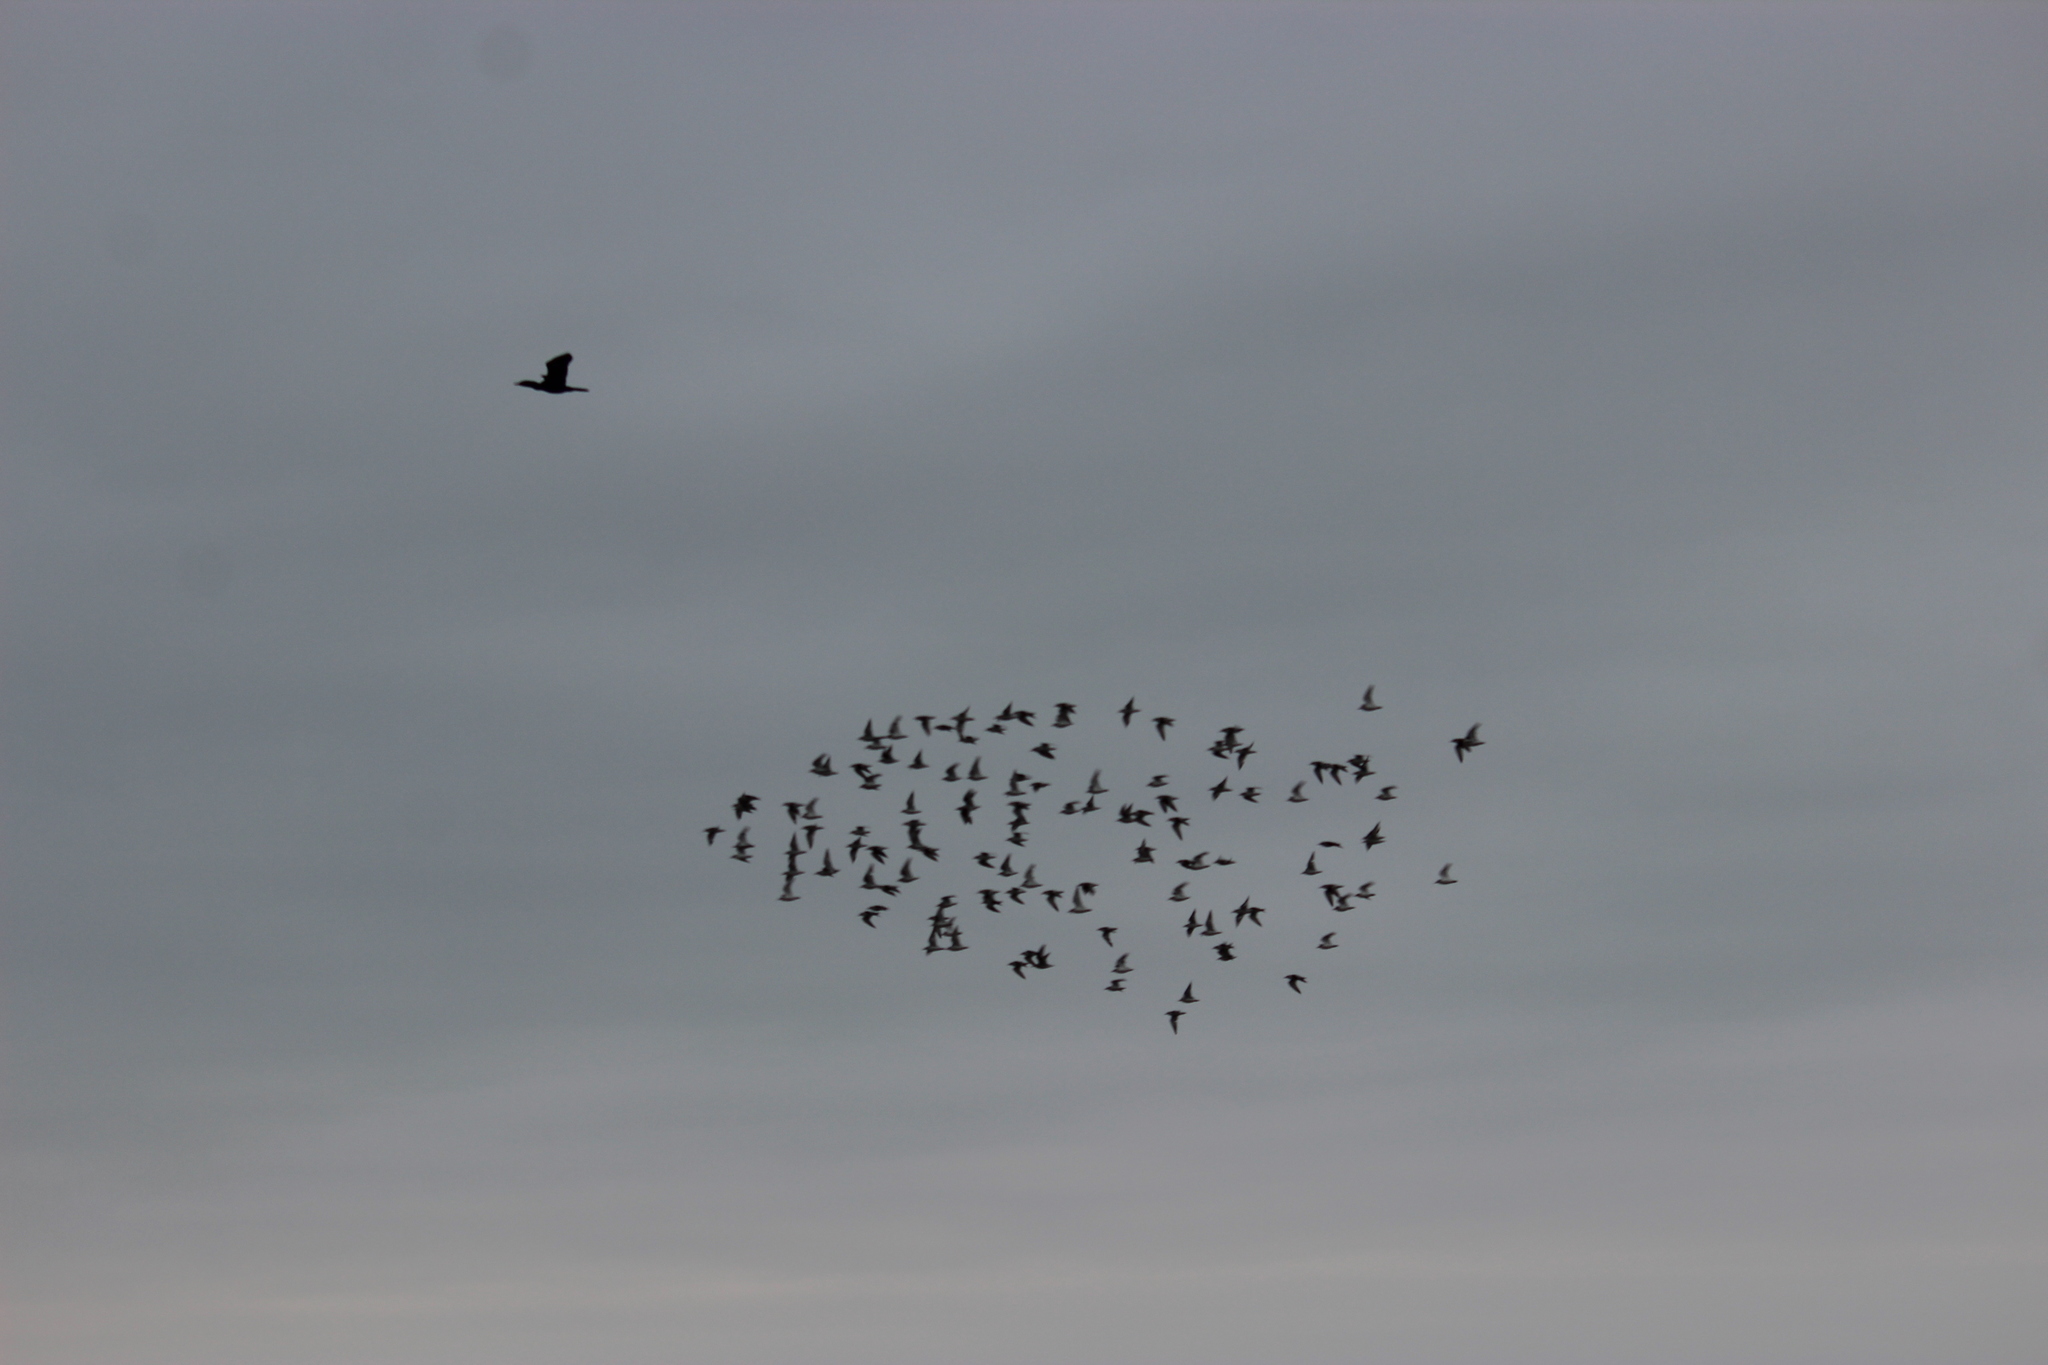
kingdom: Animalia
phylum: Chordata
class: Aves
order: Charadriiformes
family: Laridae
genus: Leucophaeus
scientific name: Leucophaeus pipixcan
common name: Franklin's gull
